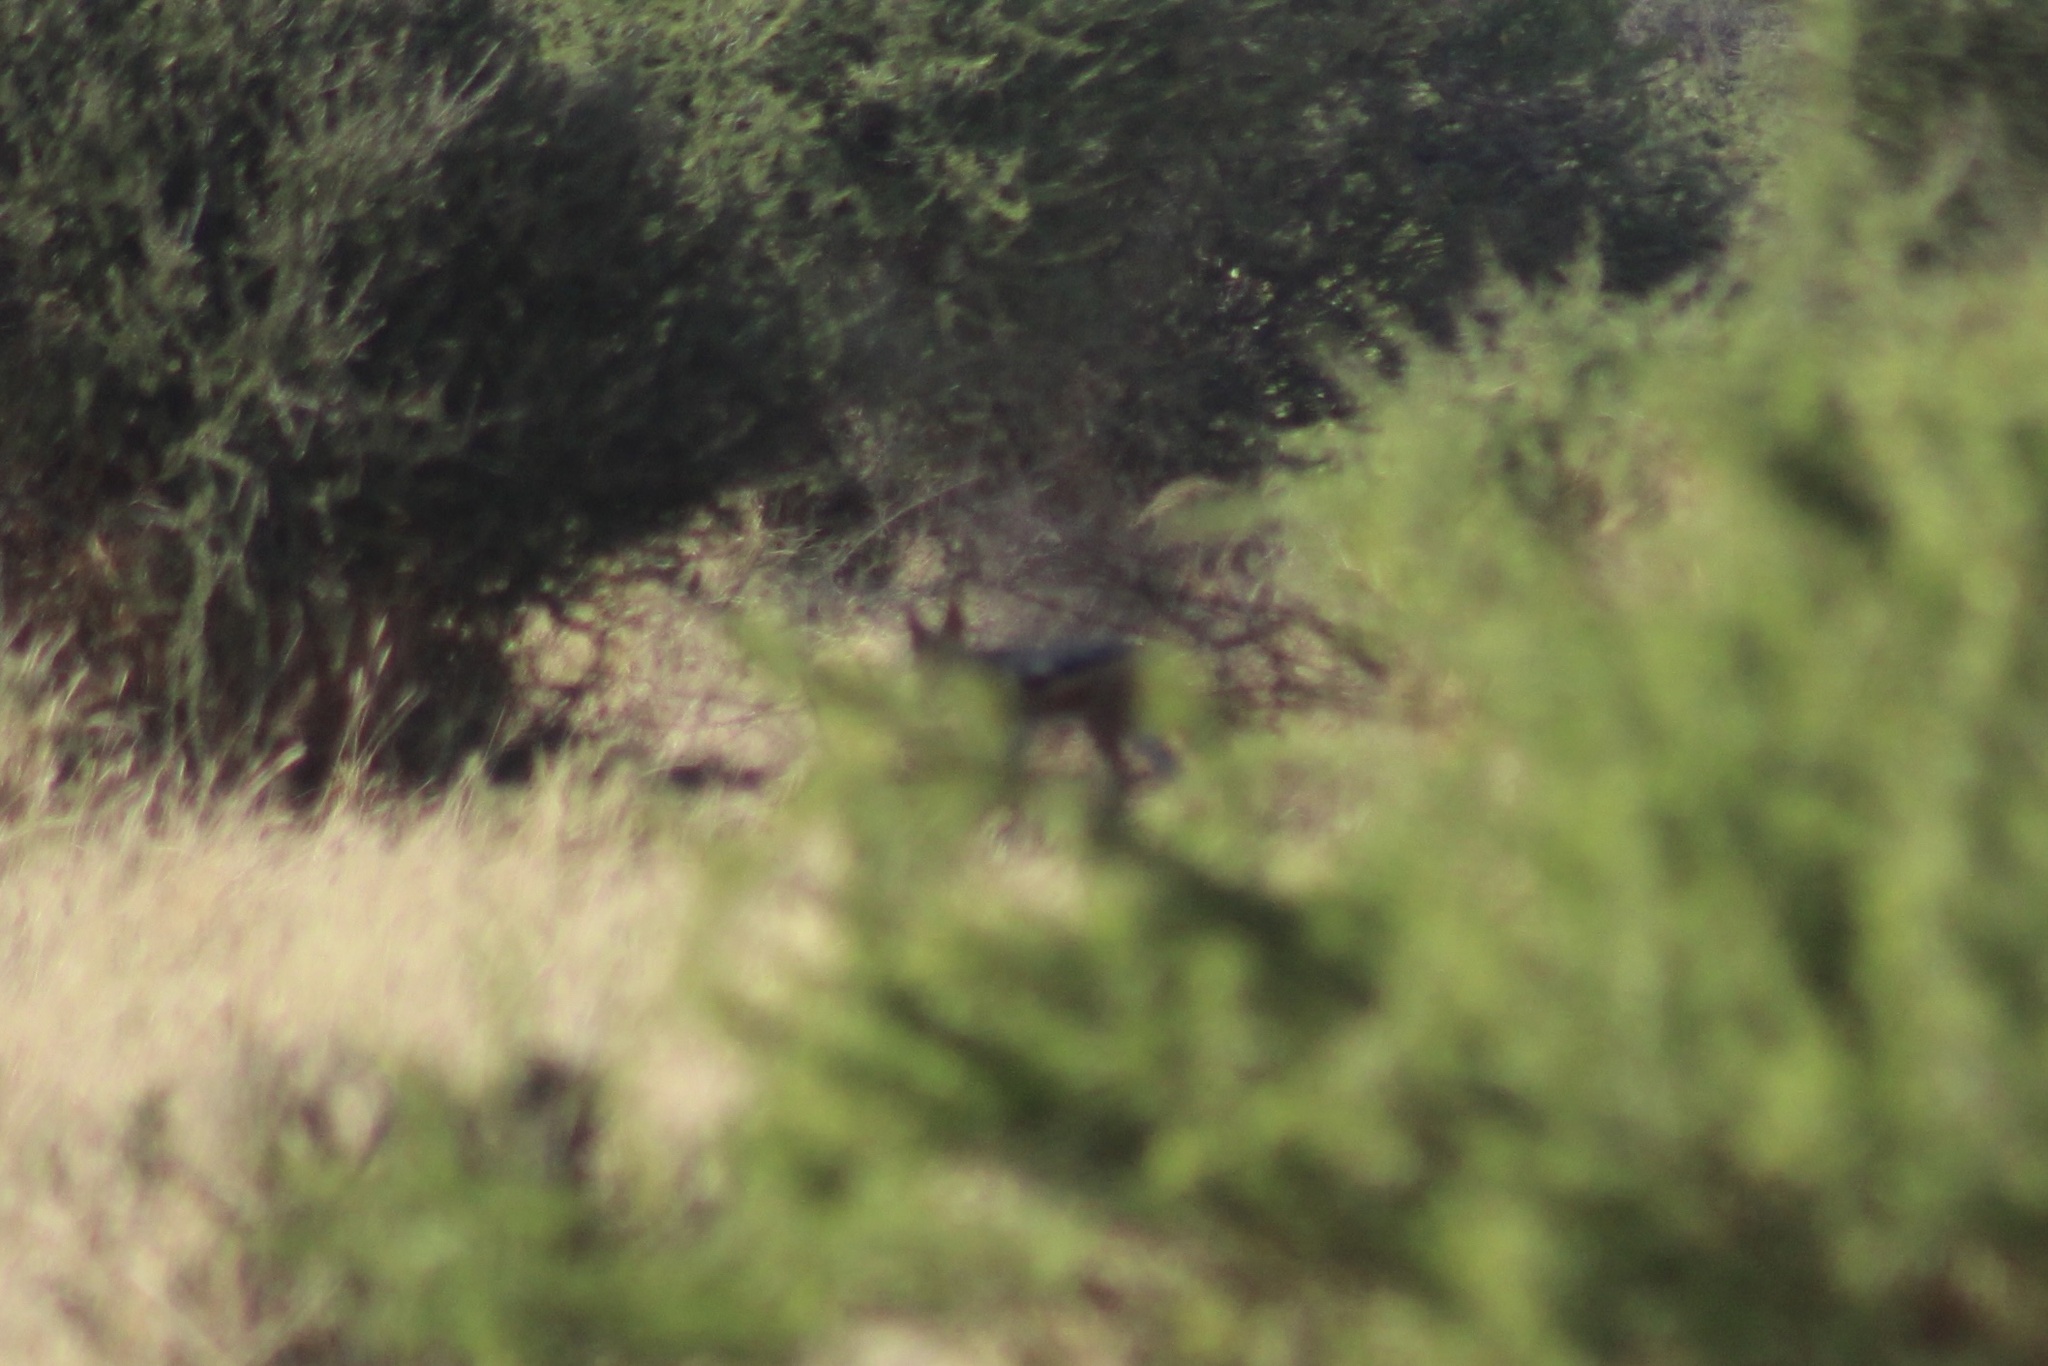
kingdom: Animalia
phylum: Chordata
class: Mammalia
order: Carnivora
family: Canidae
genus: Lupulella
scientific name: Lupulella
